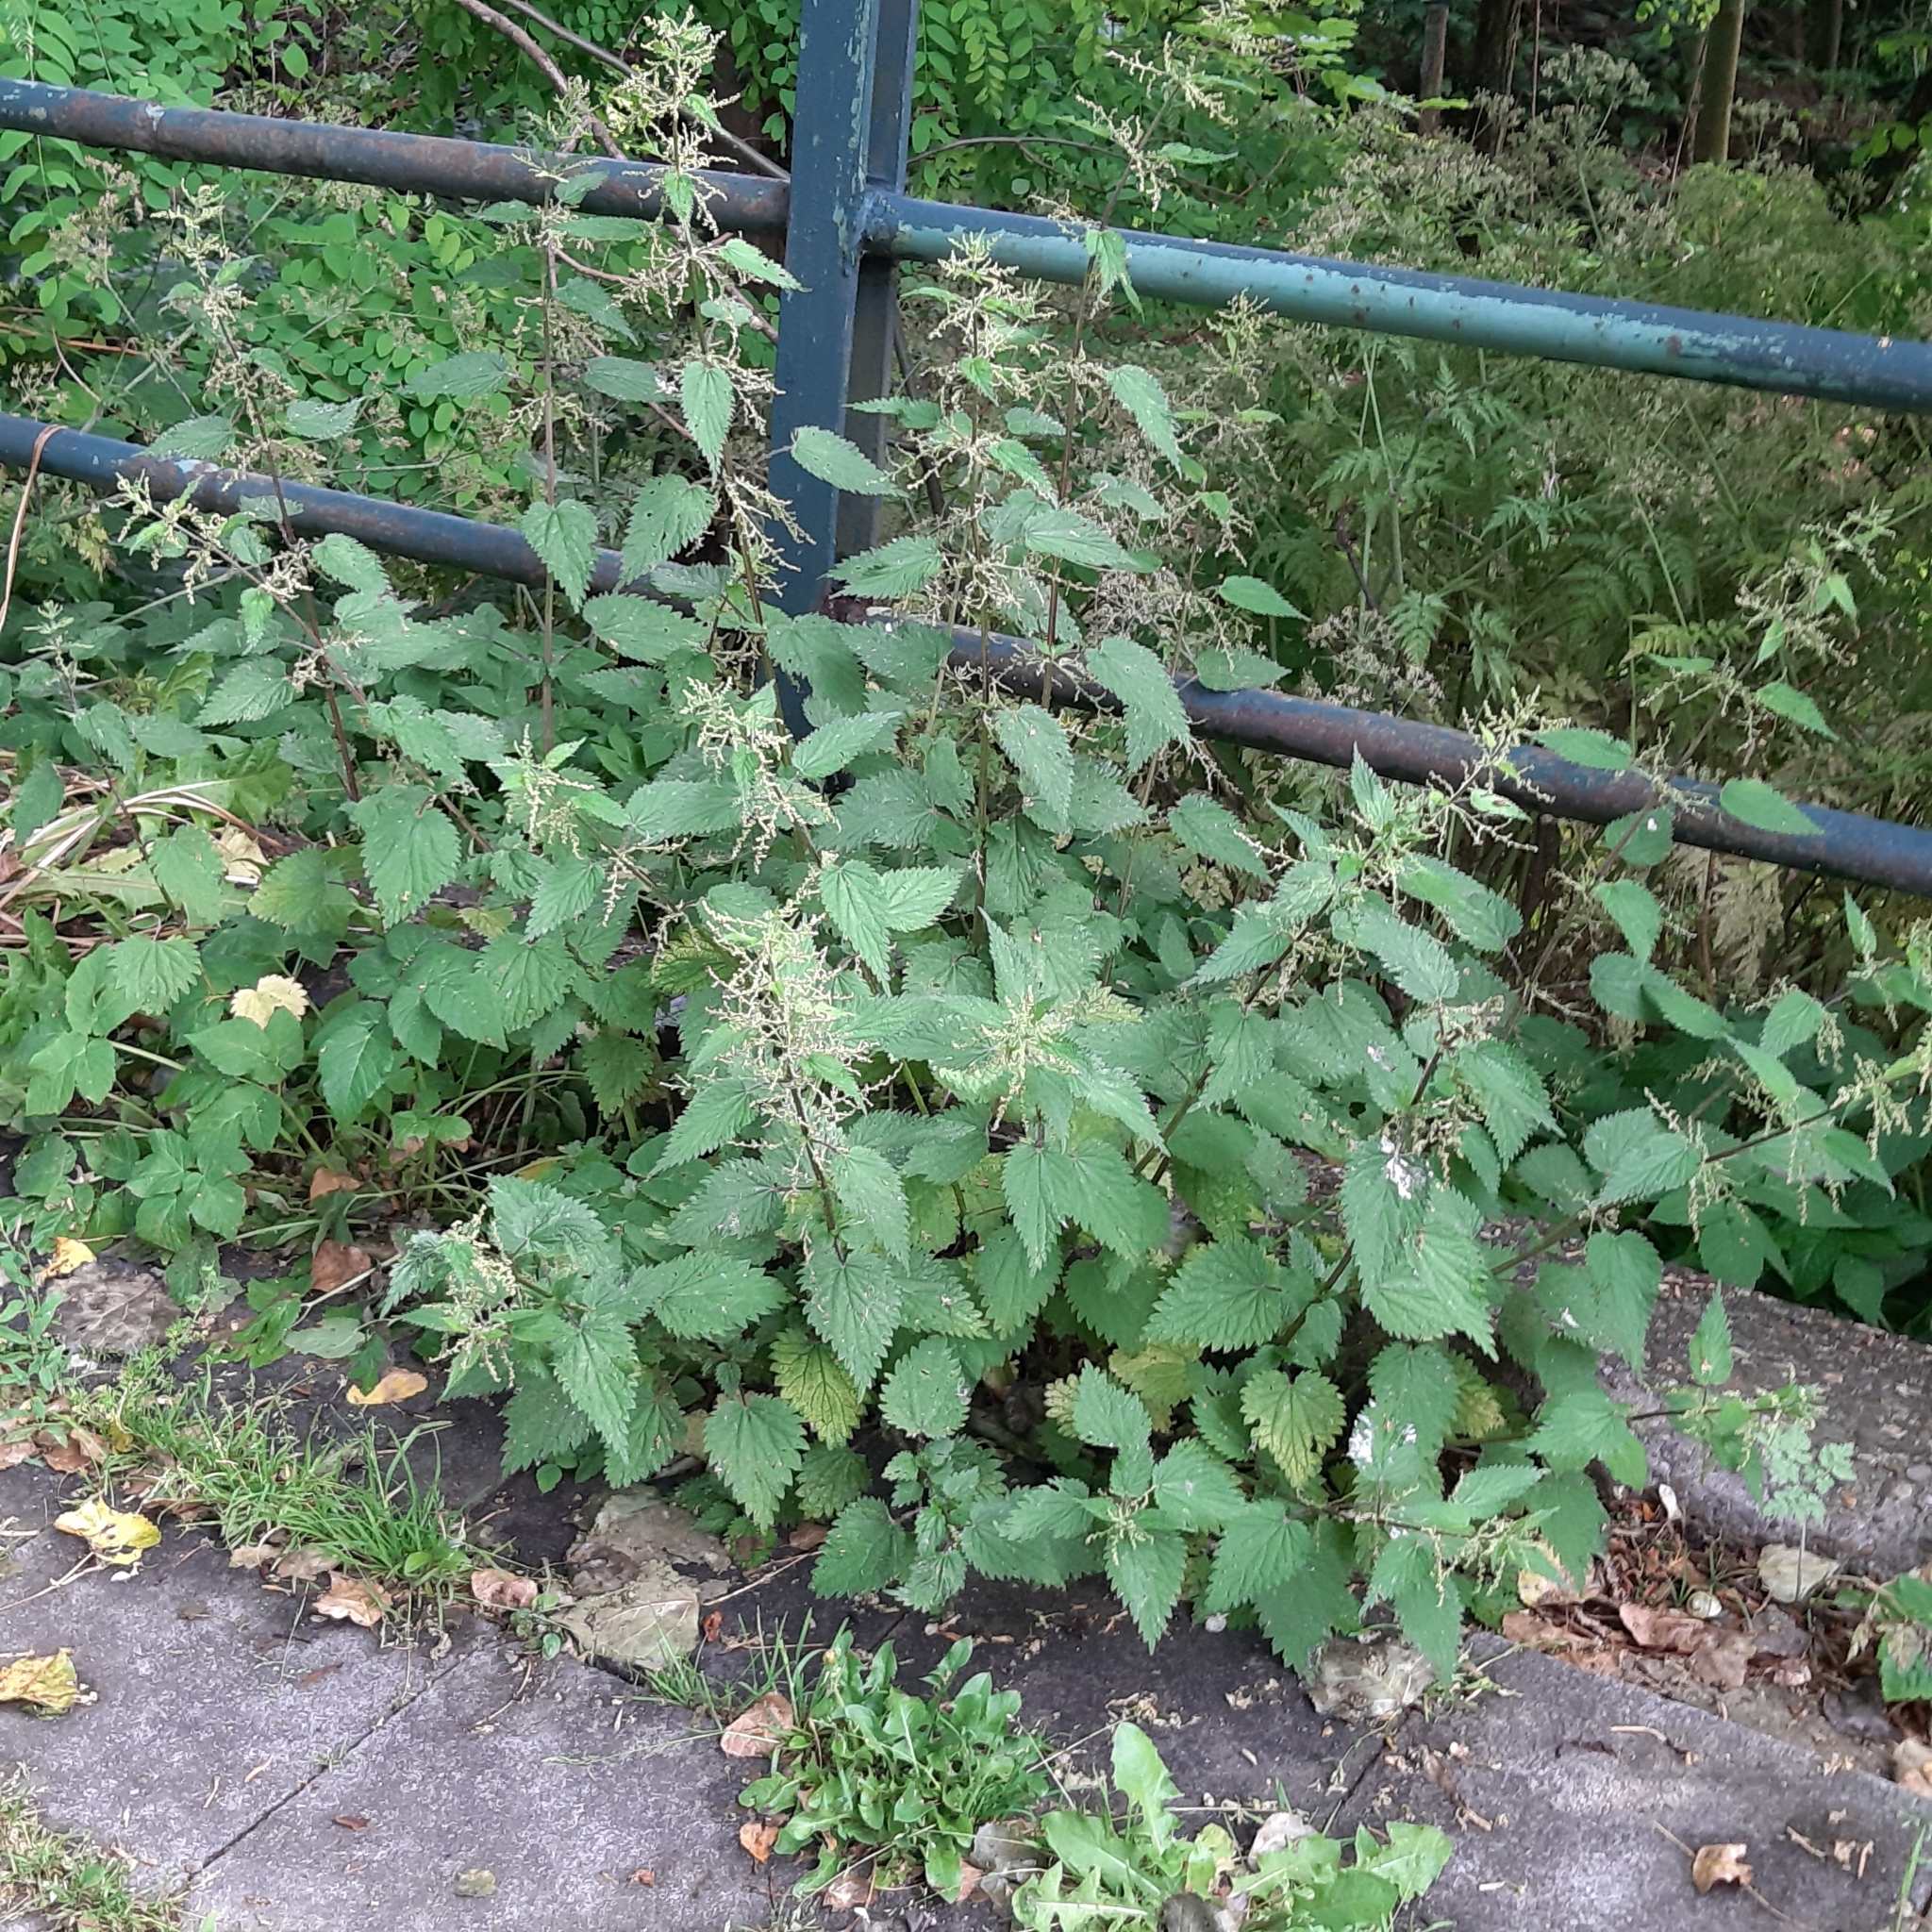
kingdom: Plantae
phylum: Tracheophyta
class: Magnoliopsida
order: Rosales
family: Urticaceae
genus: Urtica
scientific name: Urtica dioica
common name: Common nettle
